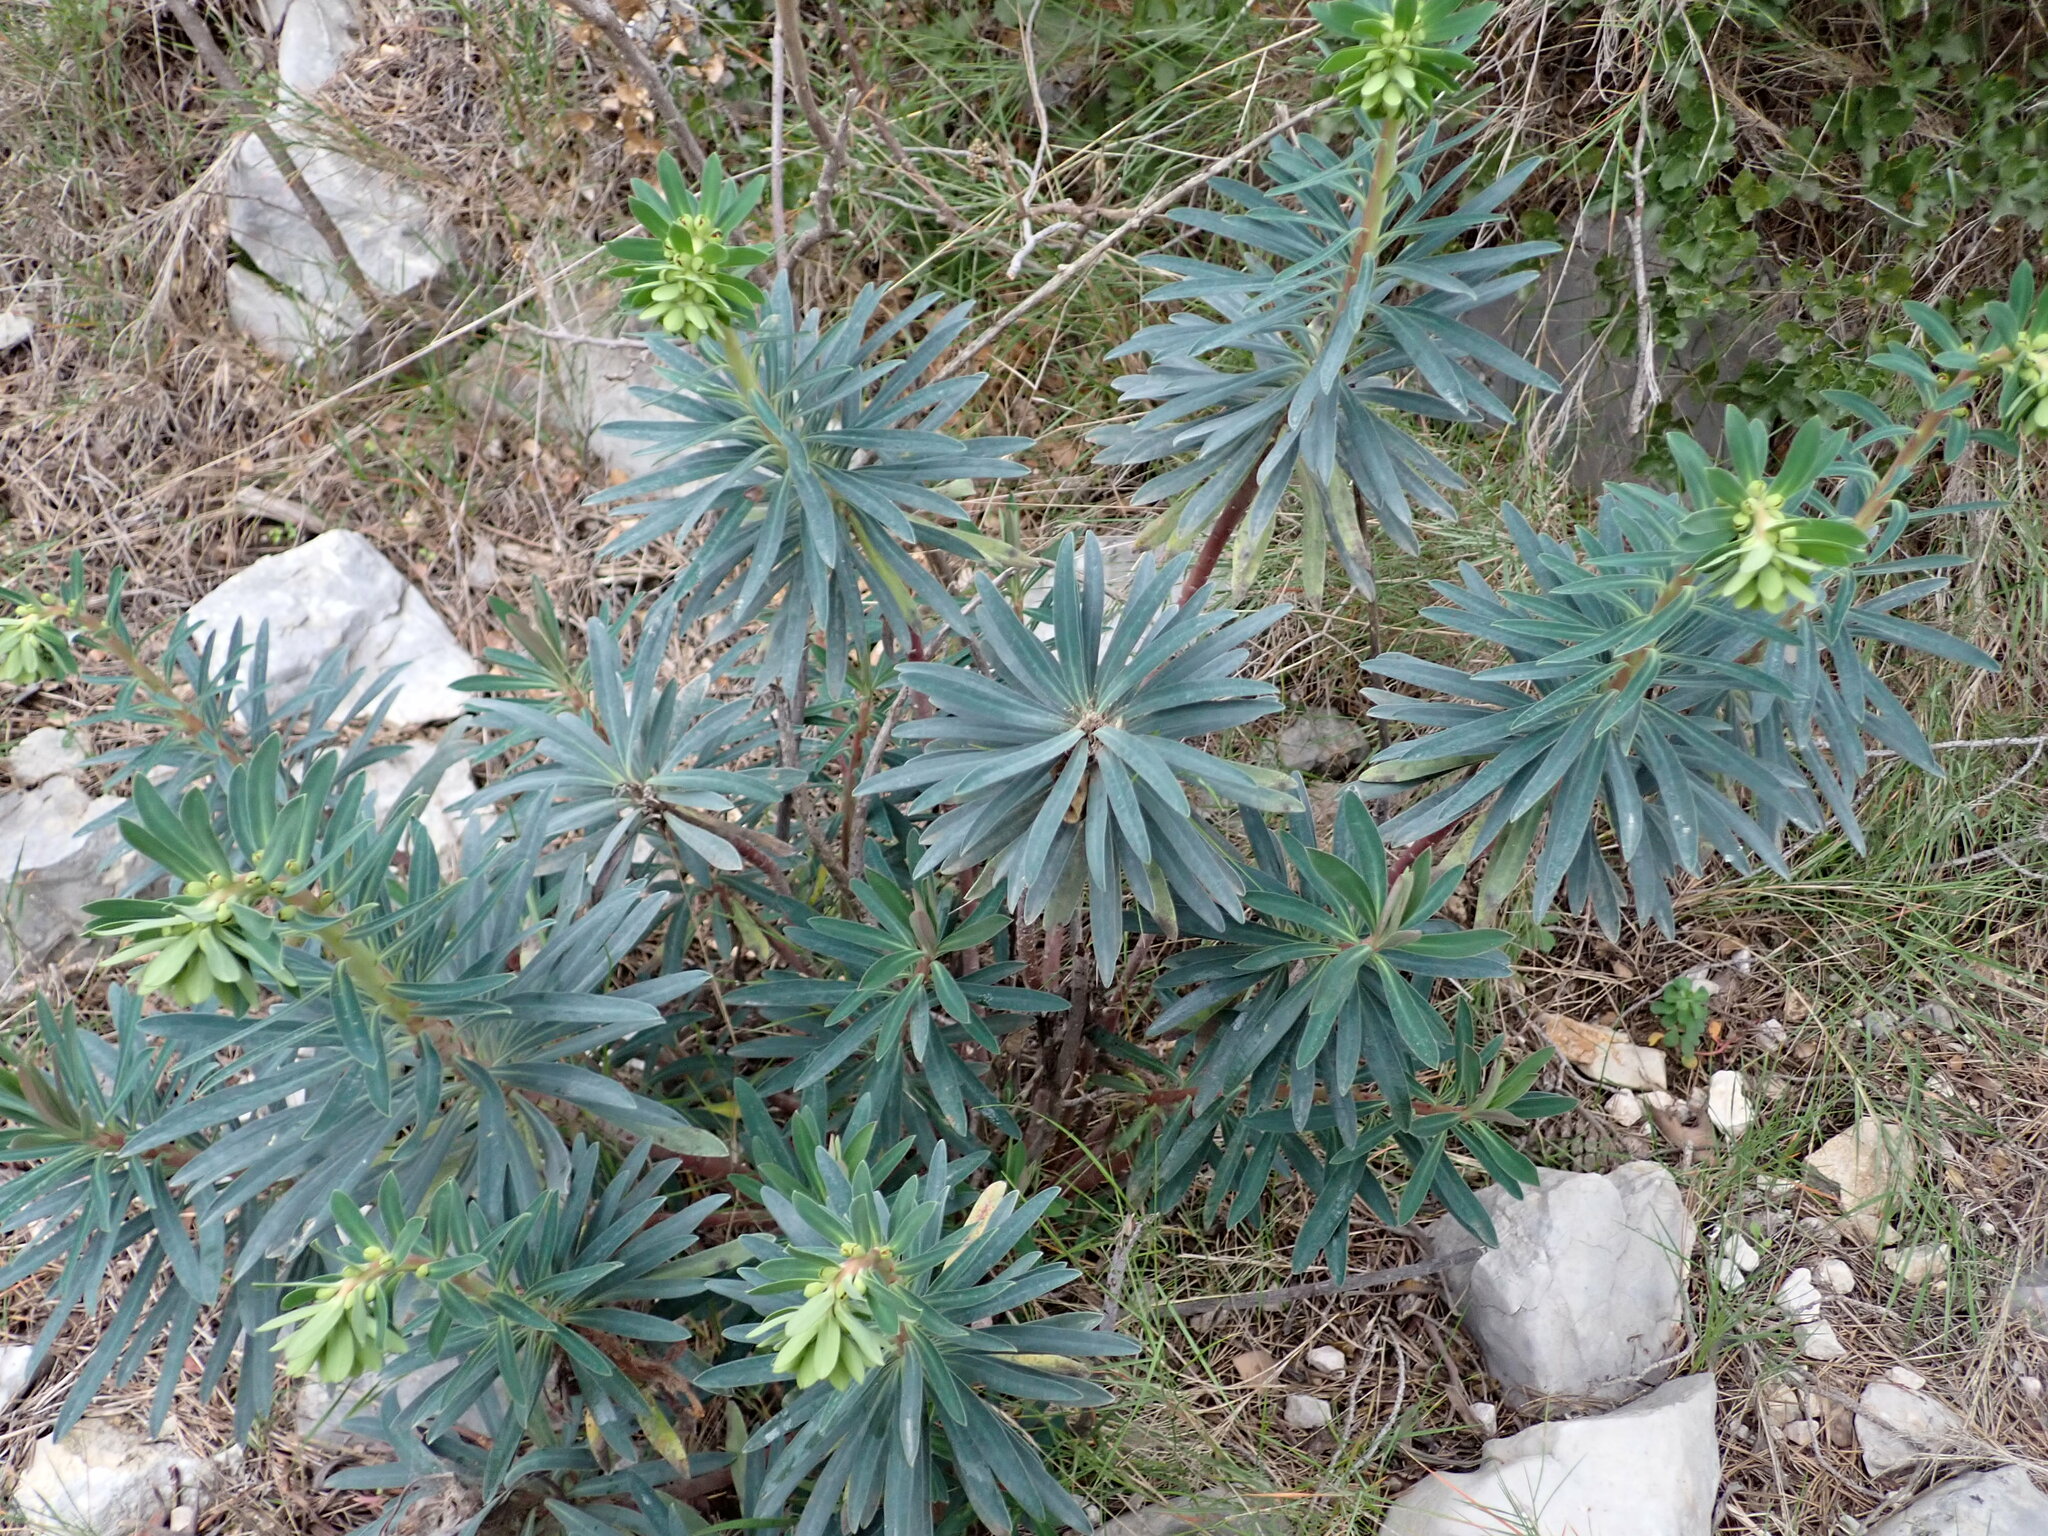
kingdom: Plantae
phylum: Tracheophyta
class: Magnoliopsida
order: Malpighiales
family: Euphorbiaceae
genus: Euphorbia
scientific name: Euphorbia characias
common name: Mediterranean spurge
